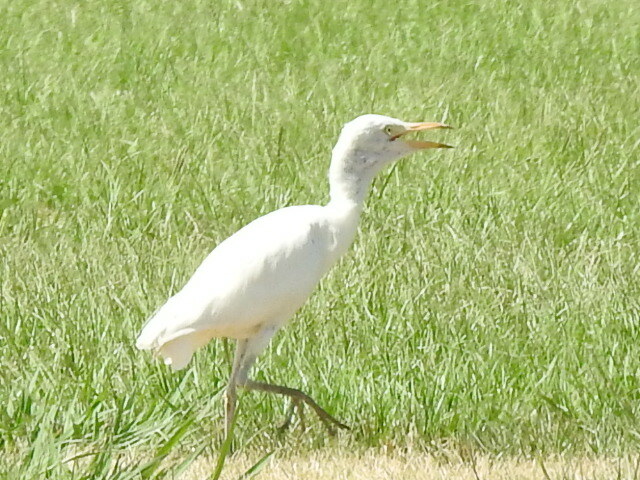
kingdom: Animalia
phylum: Chordata
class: Aves
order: Pelecaniformes
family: Ardeidae
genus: Bubulcus
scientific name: Bubulcus ibis
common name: Cattle egret
